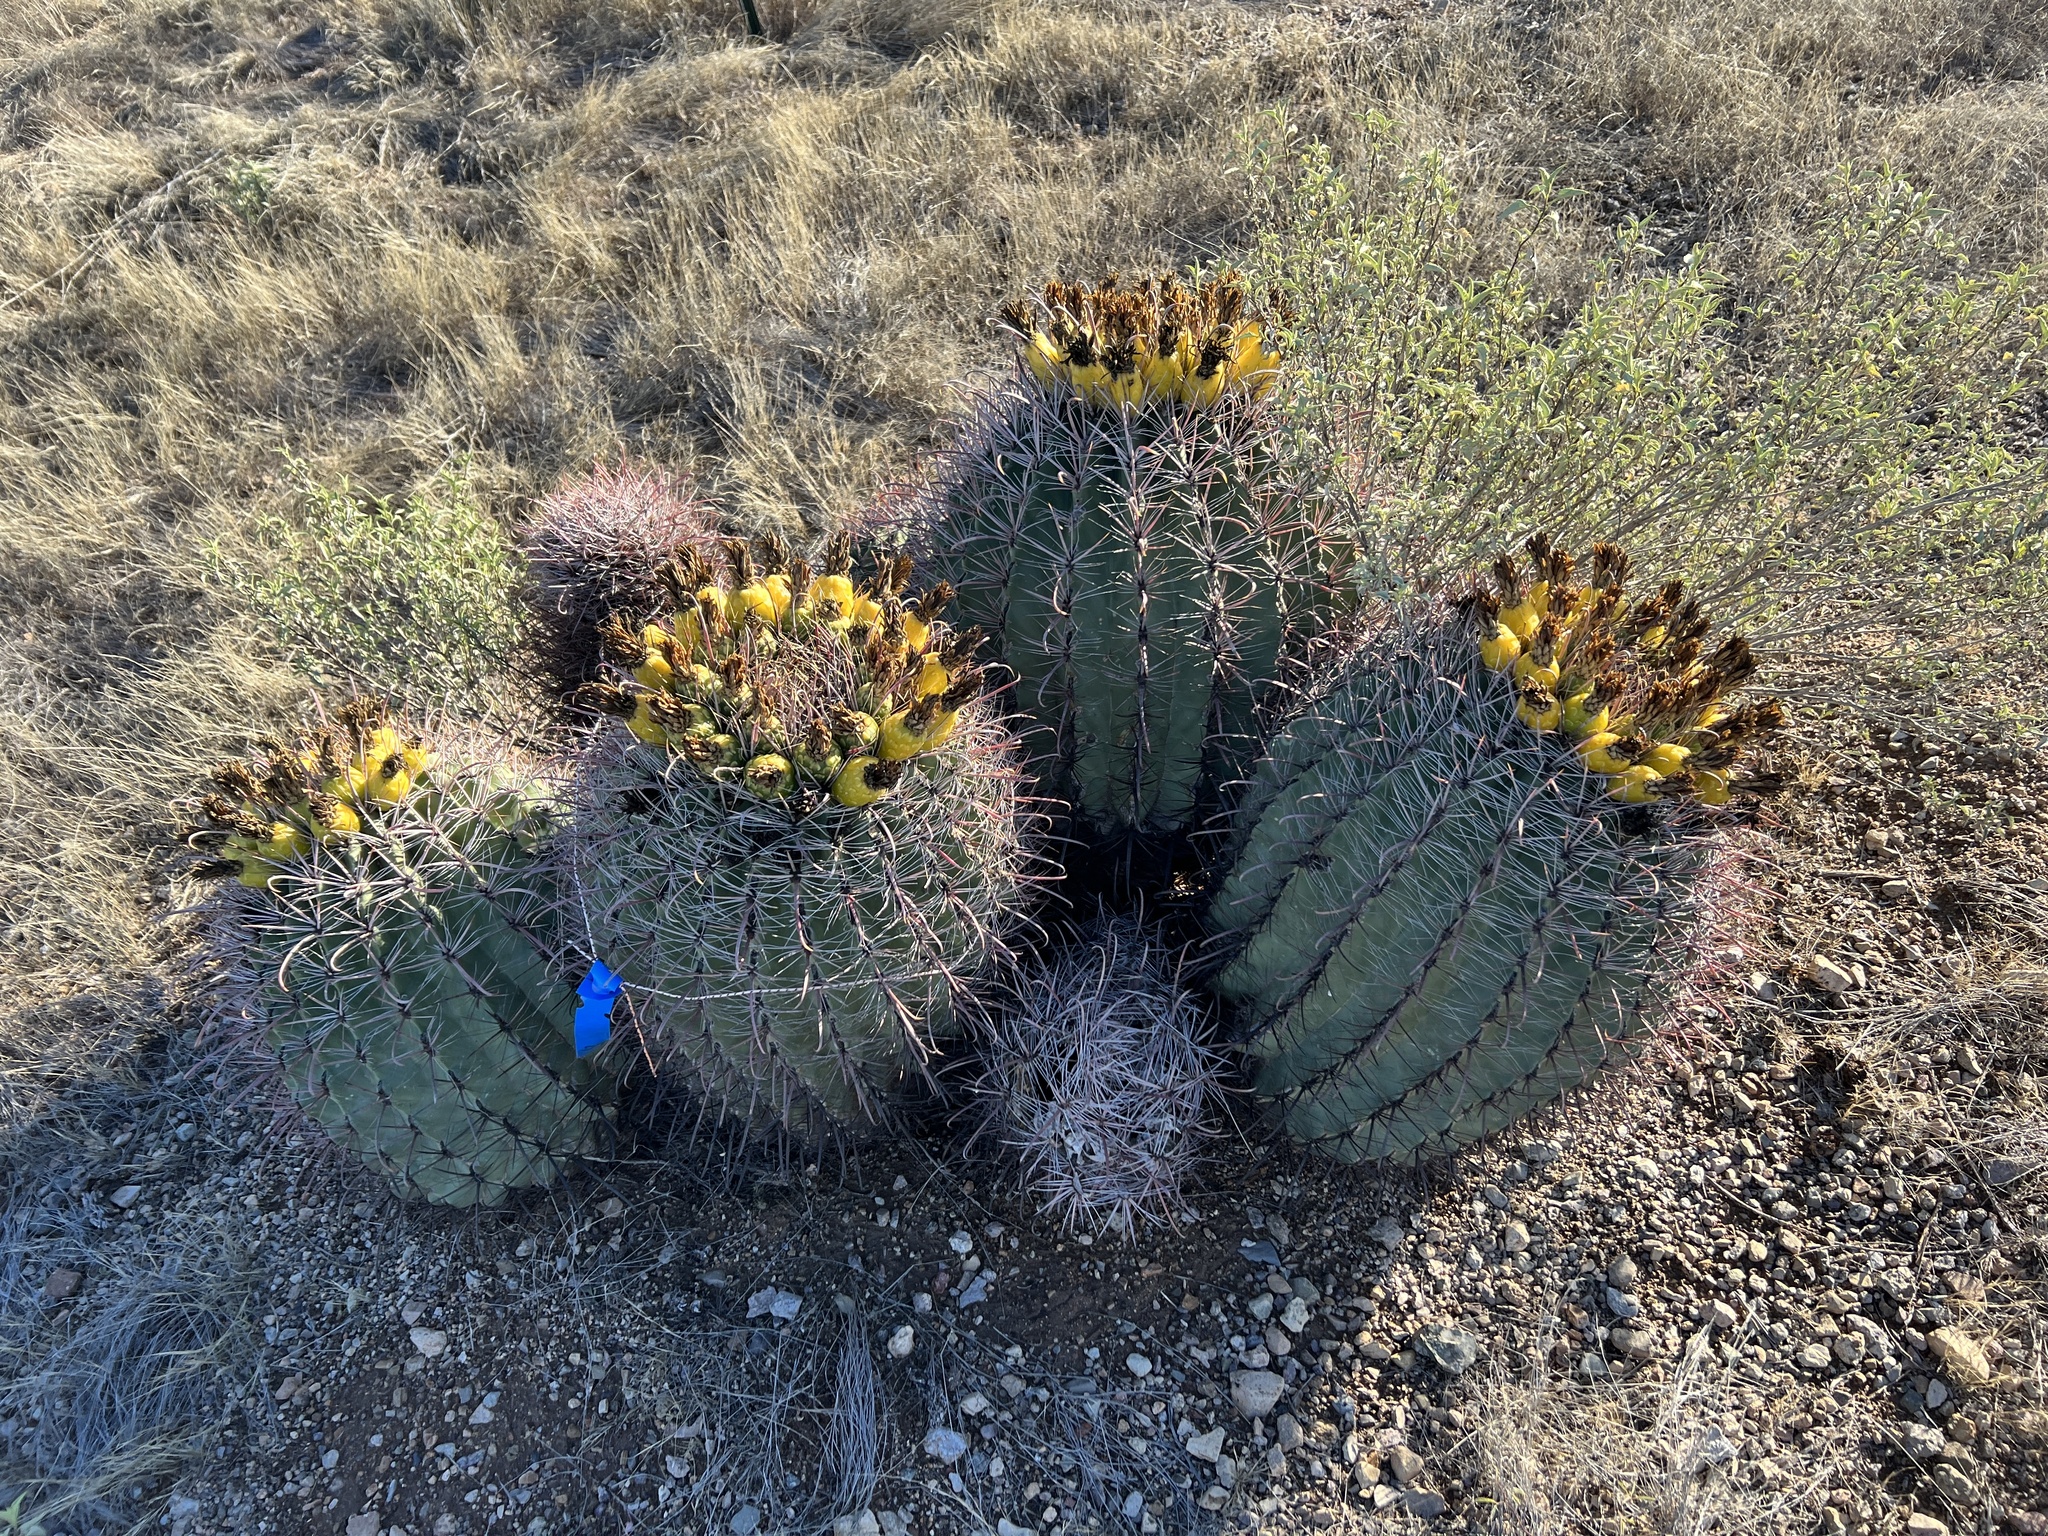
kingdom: Plantae
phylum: Tracheophyta
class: Magnoliopsida
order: Caryophyllales
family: Cactaceae
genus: Ferocactus
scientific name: Ferocactus wislizeni
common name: Candy barrel cactus
